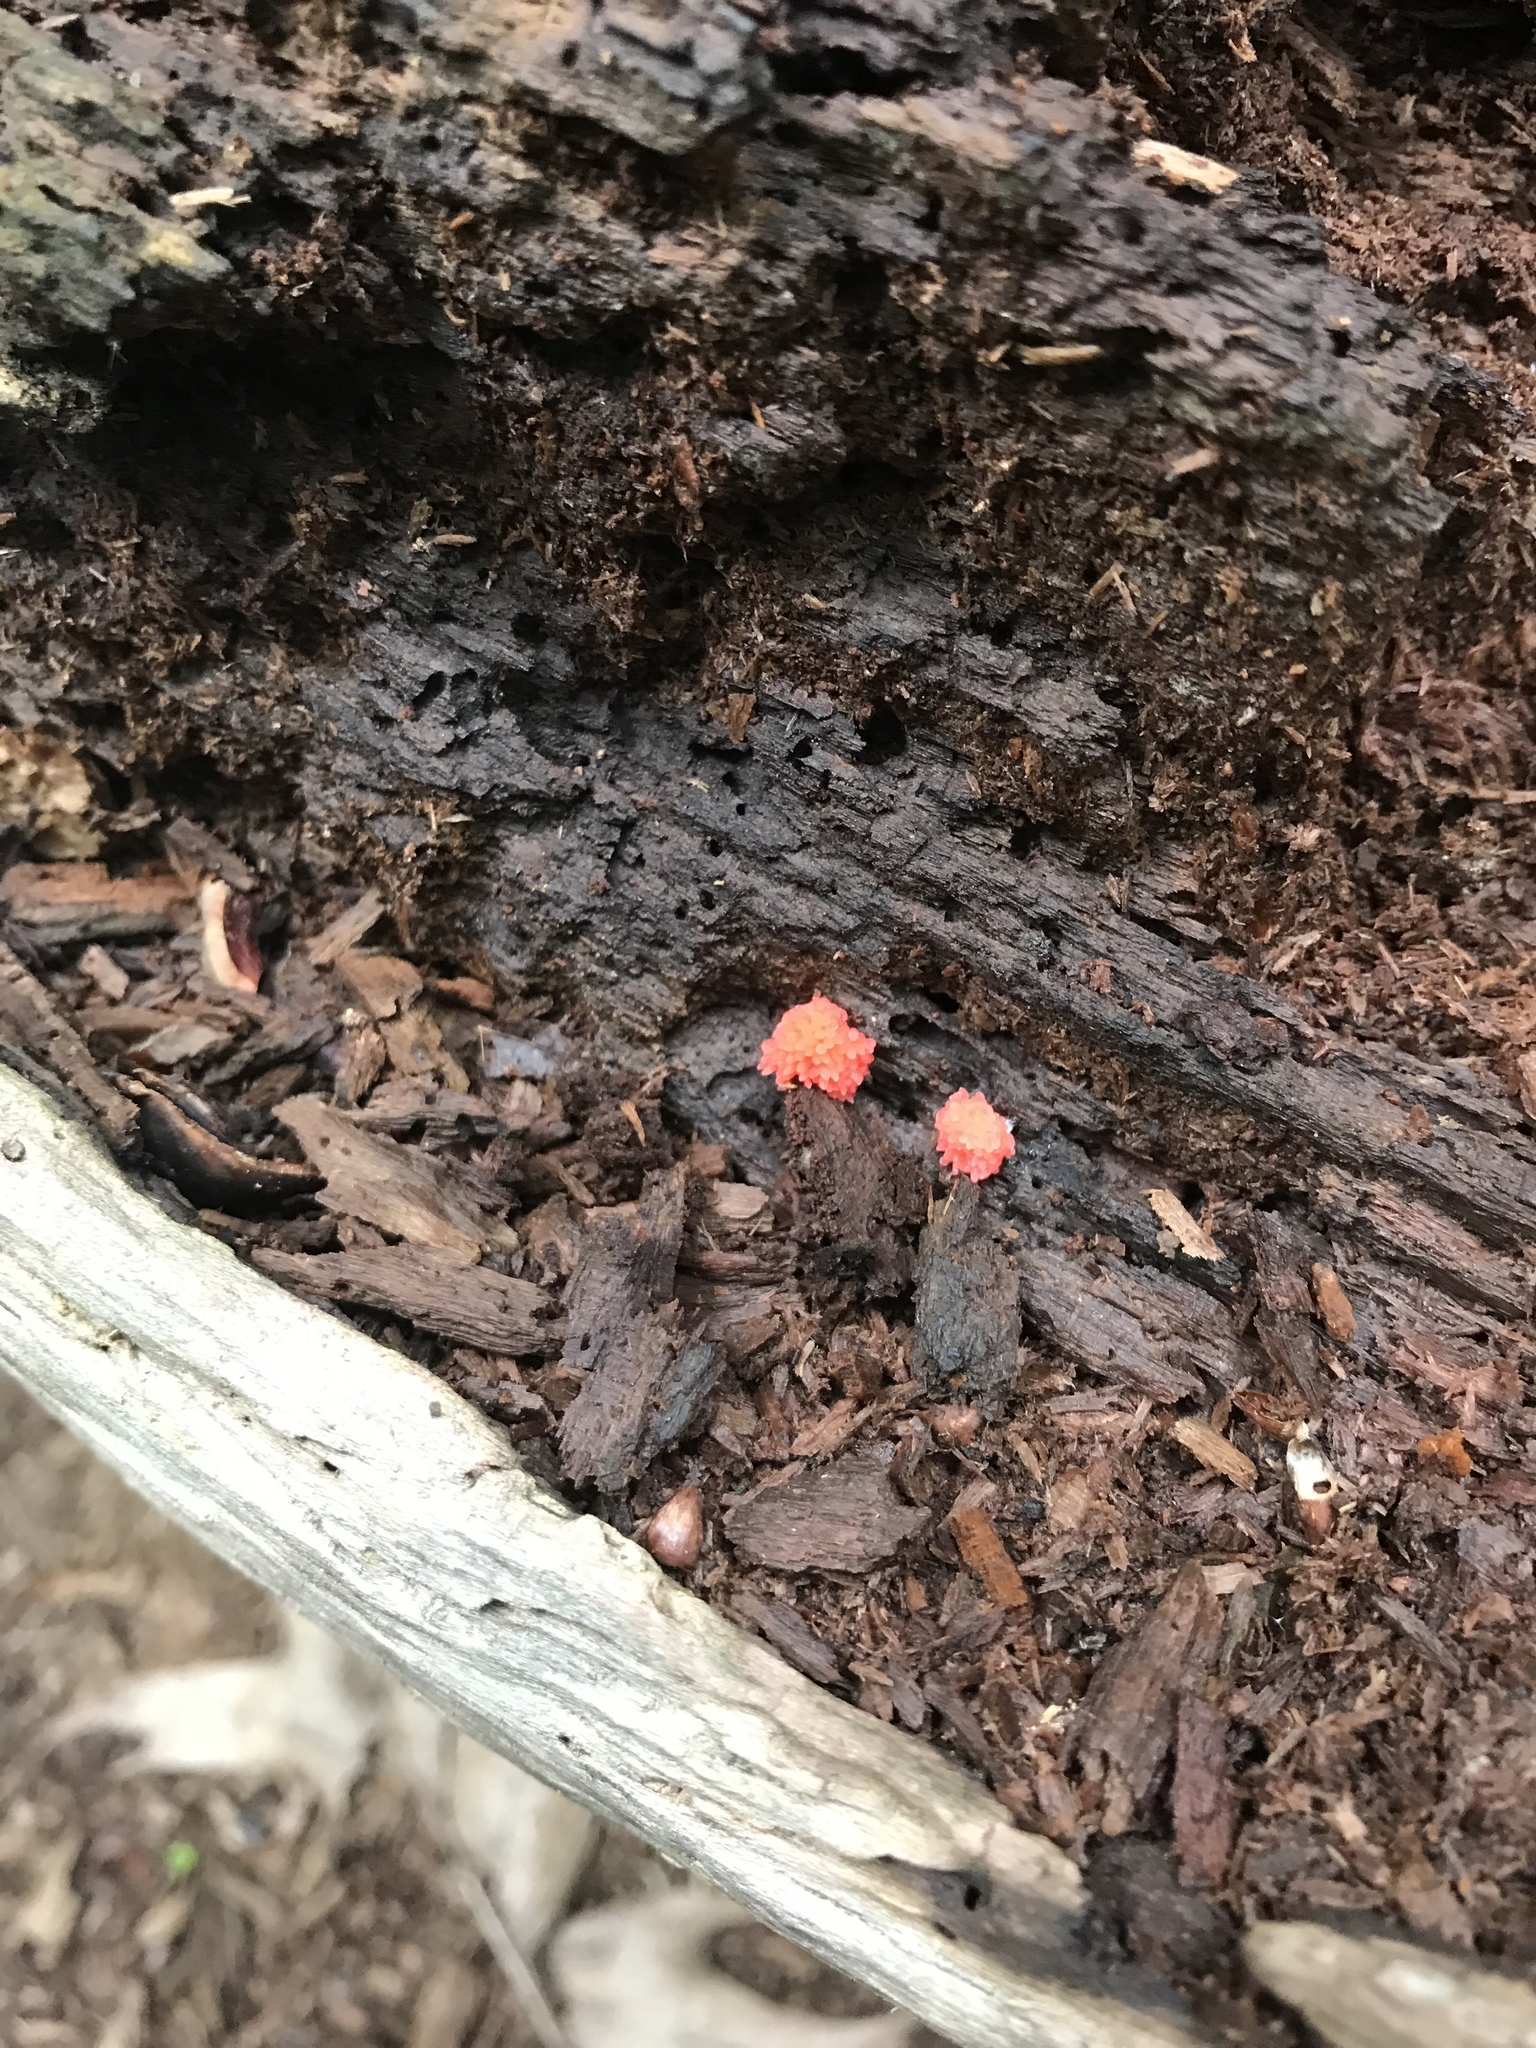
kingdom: Protozoa
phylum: Mycetozoa
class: Myxomycetes
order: Cribrariales
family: Tubiferaceae
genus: Tubifera
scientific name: Tubifera ferruginosa
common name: Red raspberry slime mold
